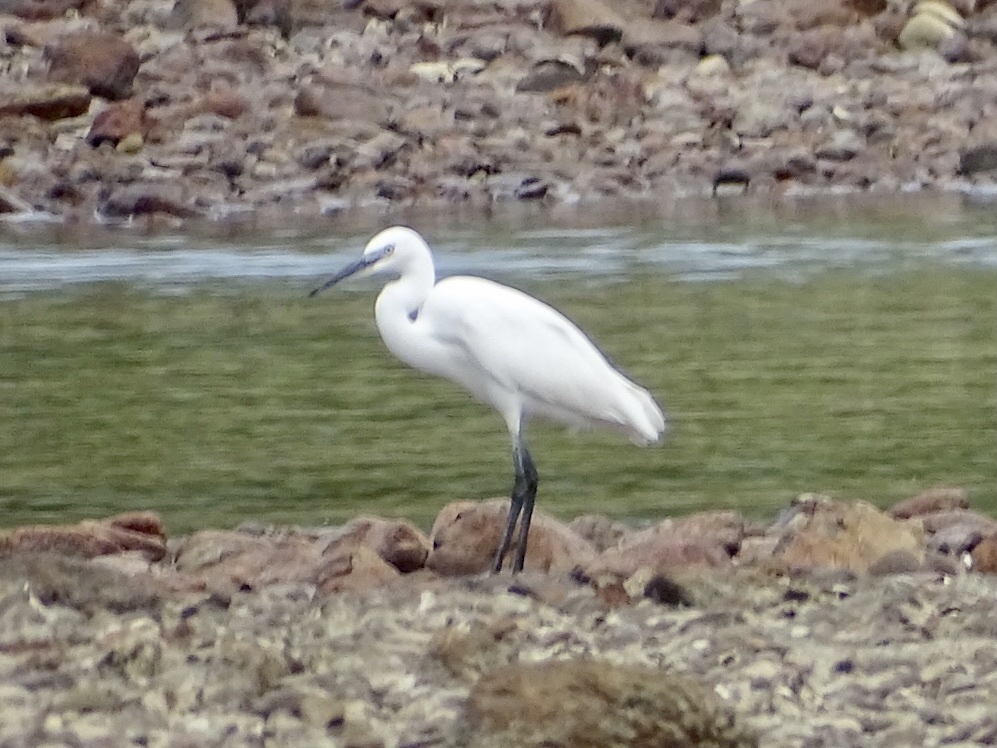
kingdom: Animalia
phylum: Chordata
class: Aves
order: Pelecaniformes
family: Ardeidae
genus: Egretta
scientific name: Egretta garzetta
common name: Little egret
